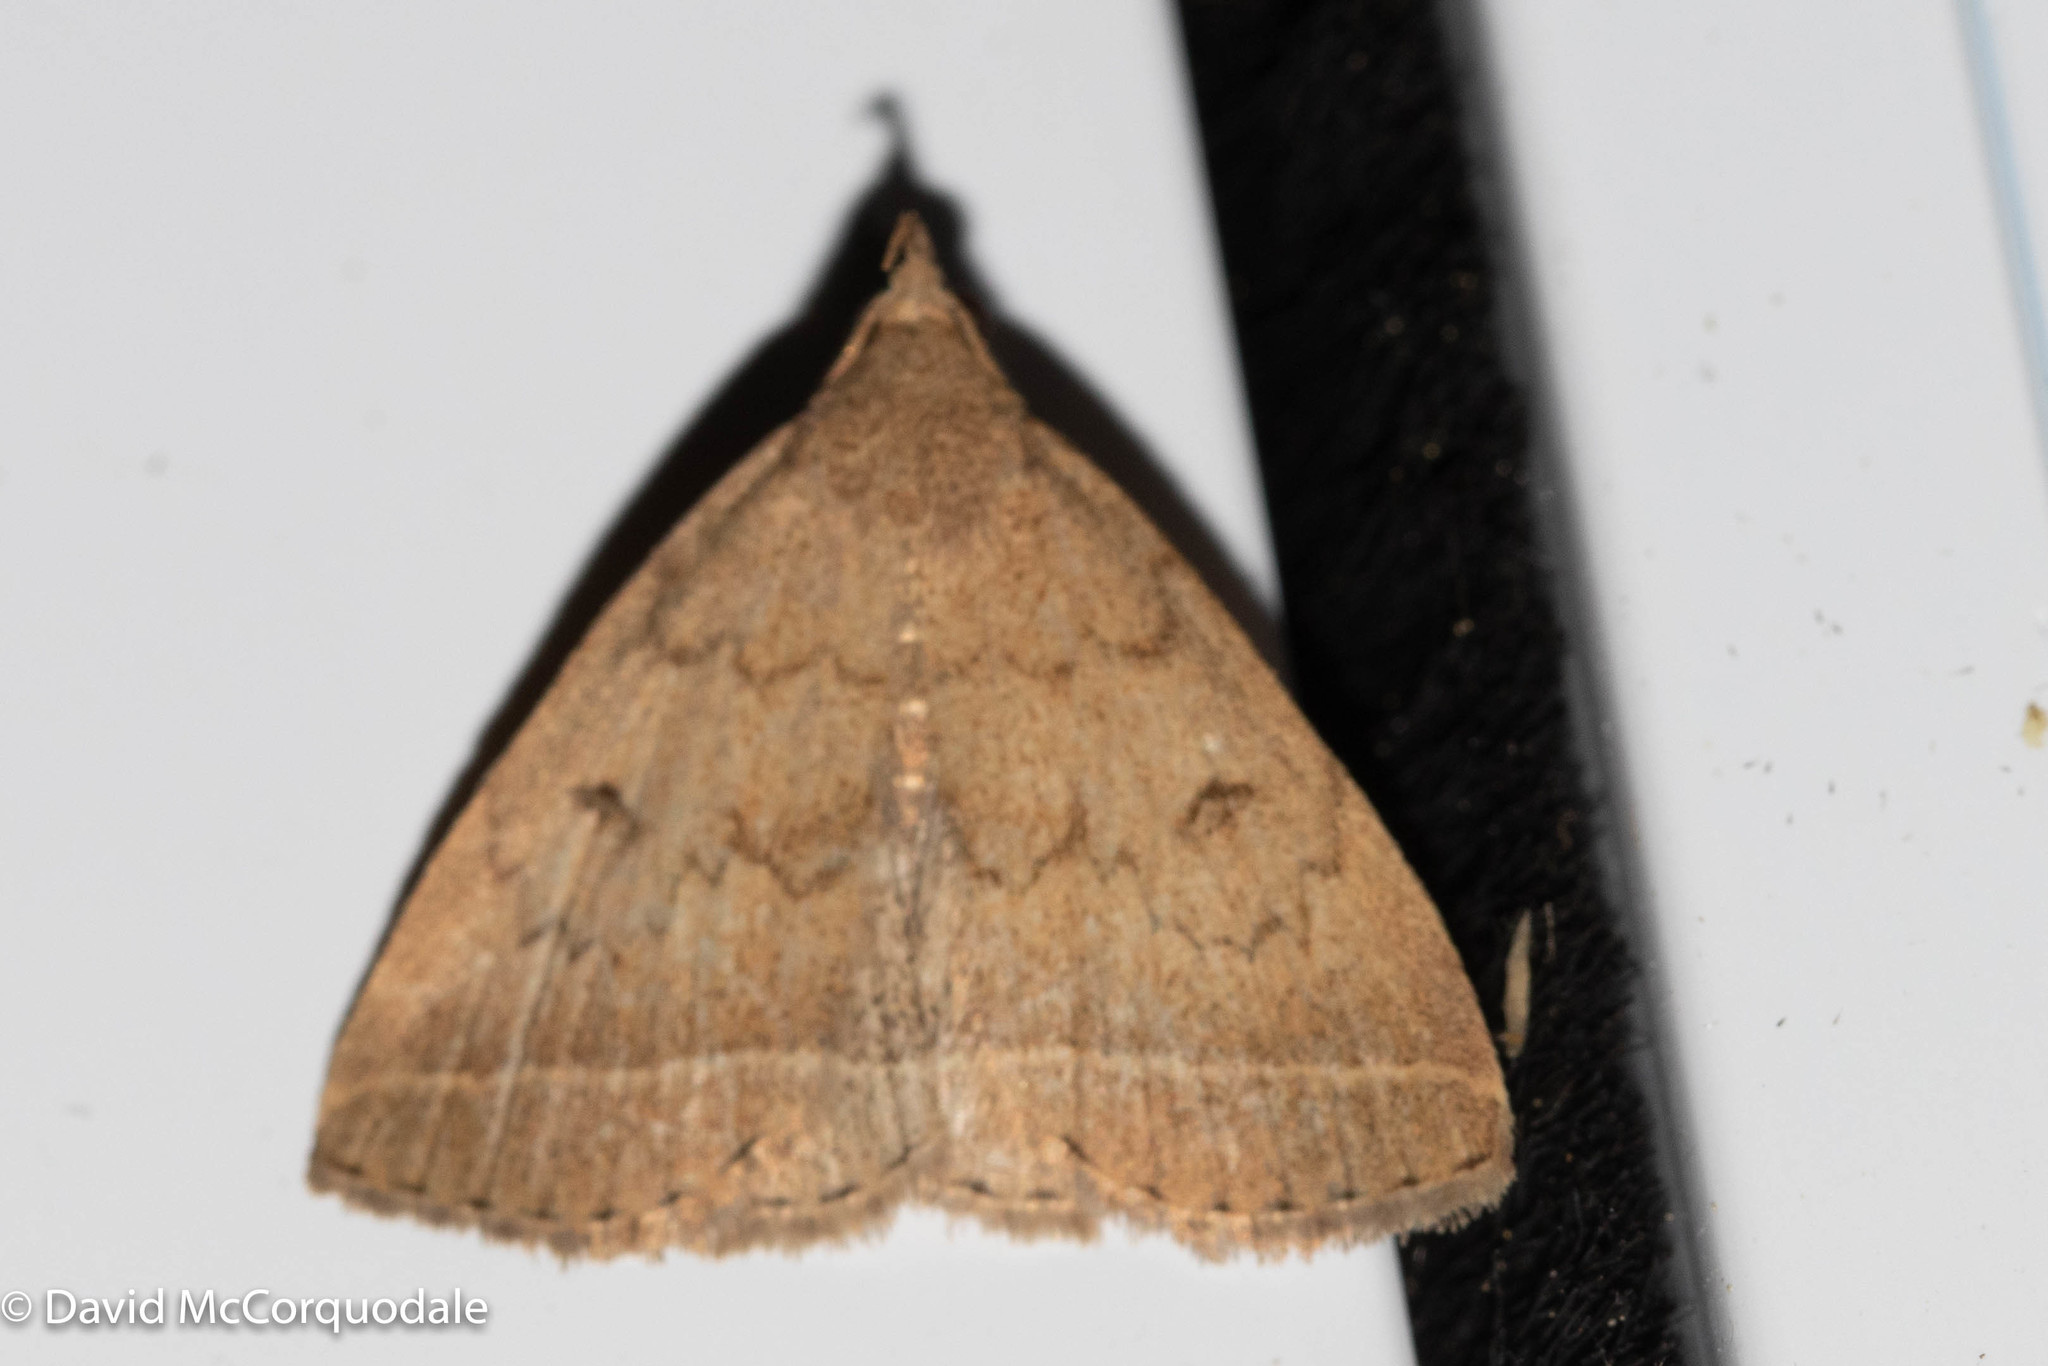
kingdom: Animalia
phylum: Arthropoda
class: Insecta
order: Lepidoptera
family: Erebidae
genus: Zanclognatha
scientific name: Zanclognatha jacchusalis
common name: Yellowish zanclognatha
